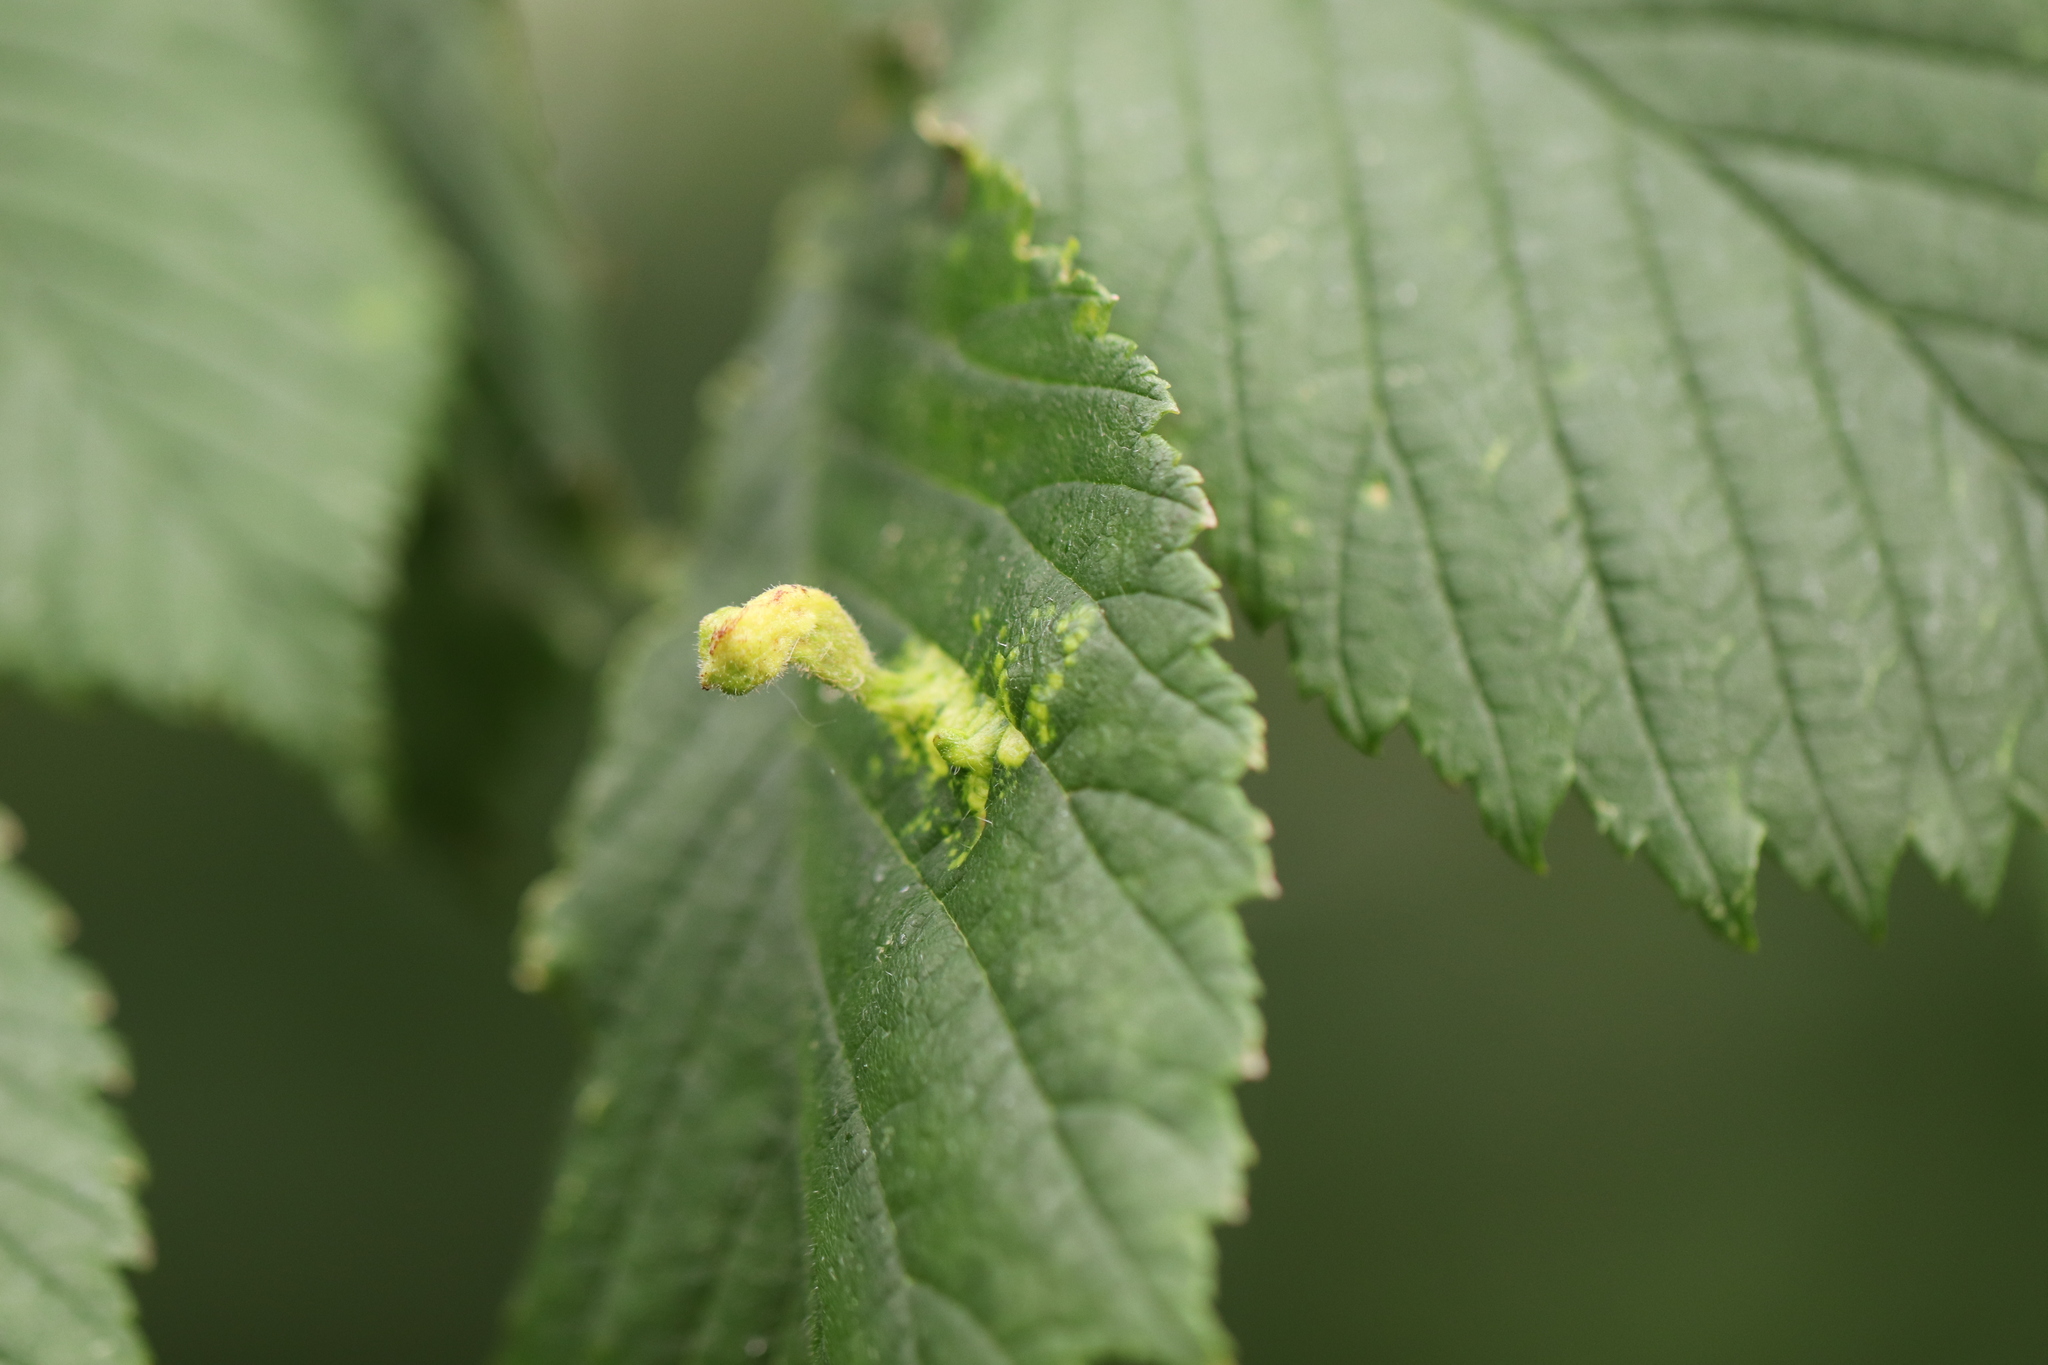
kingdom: Animalia
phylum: Arthropoda
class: Insecta
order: Hemiptera
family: Aphididae
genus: Tetraneura
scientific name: Tetraneura nigriabdominalis
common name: Aphid
